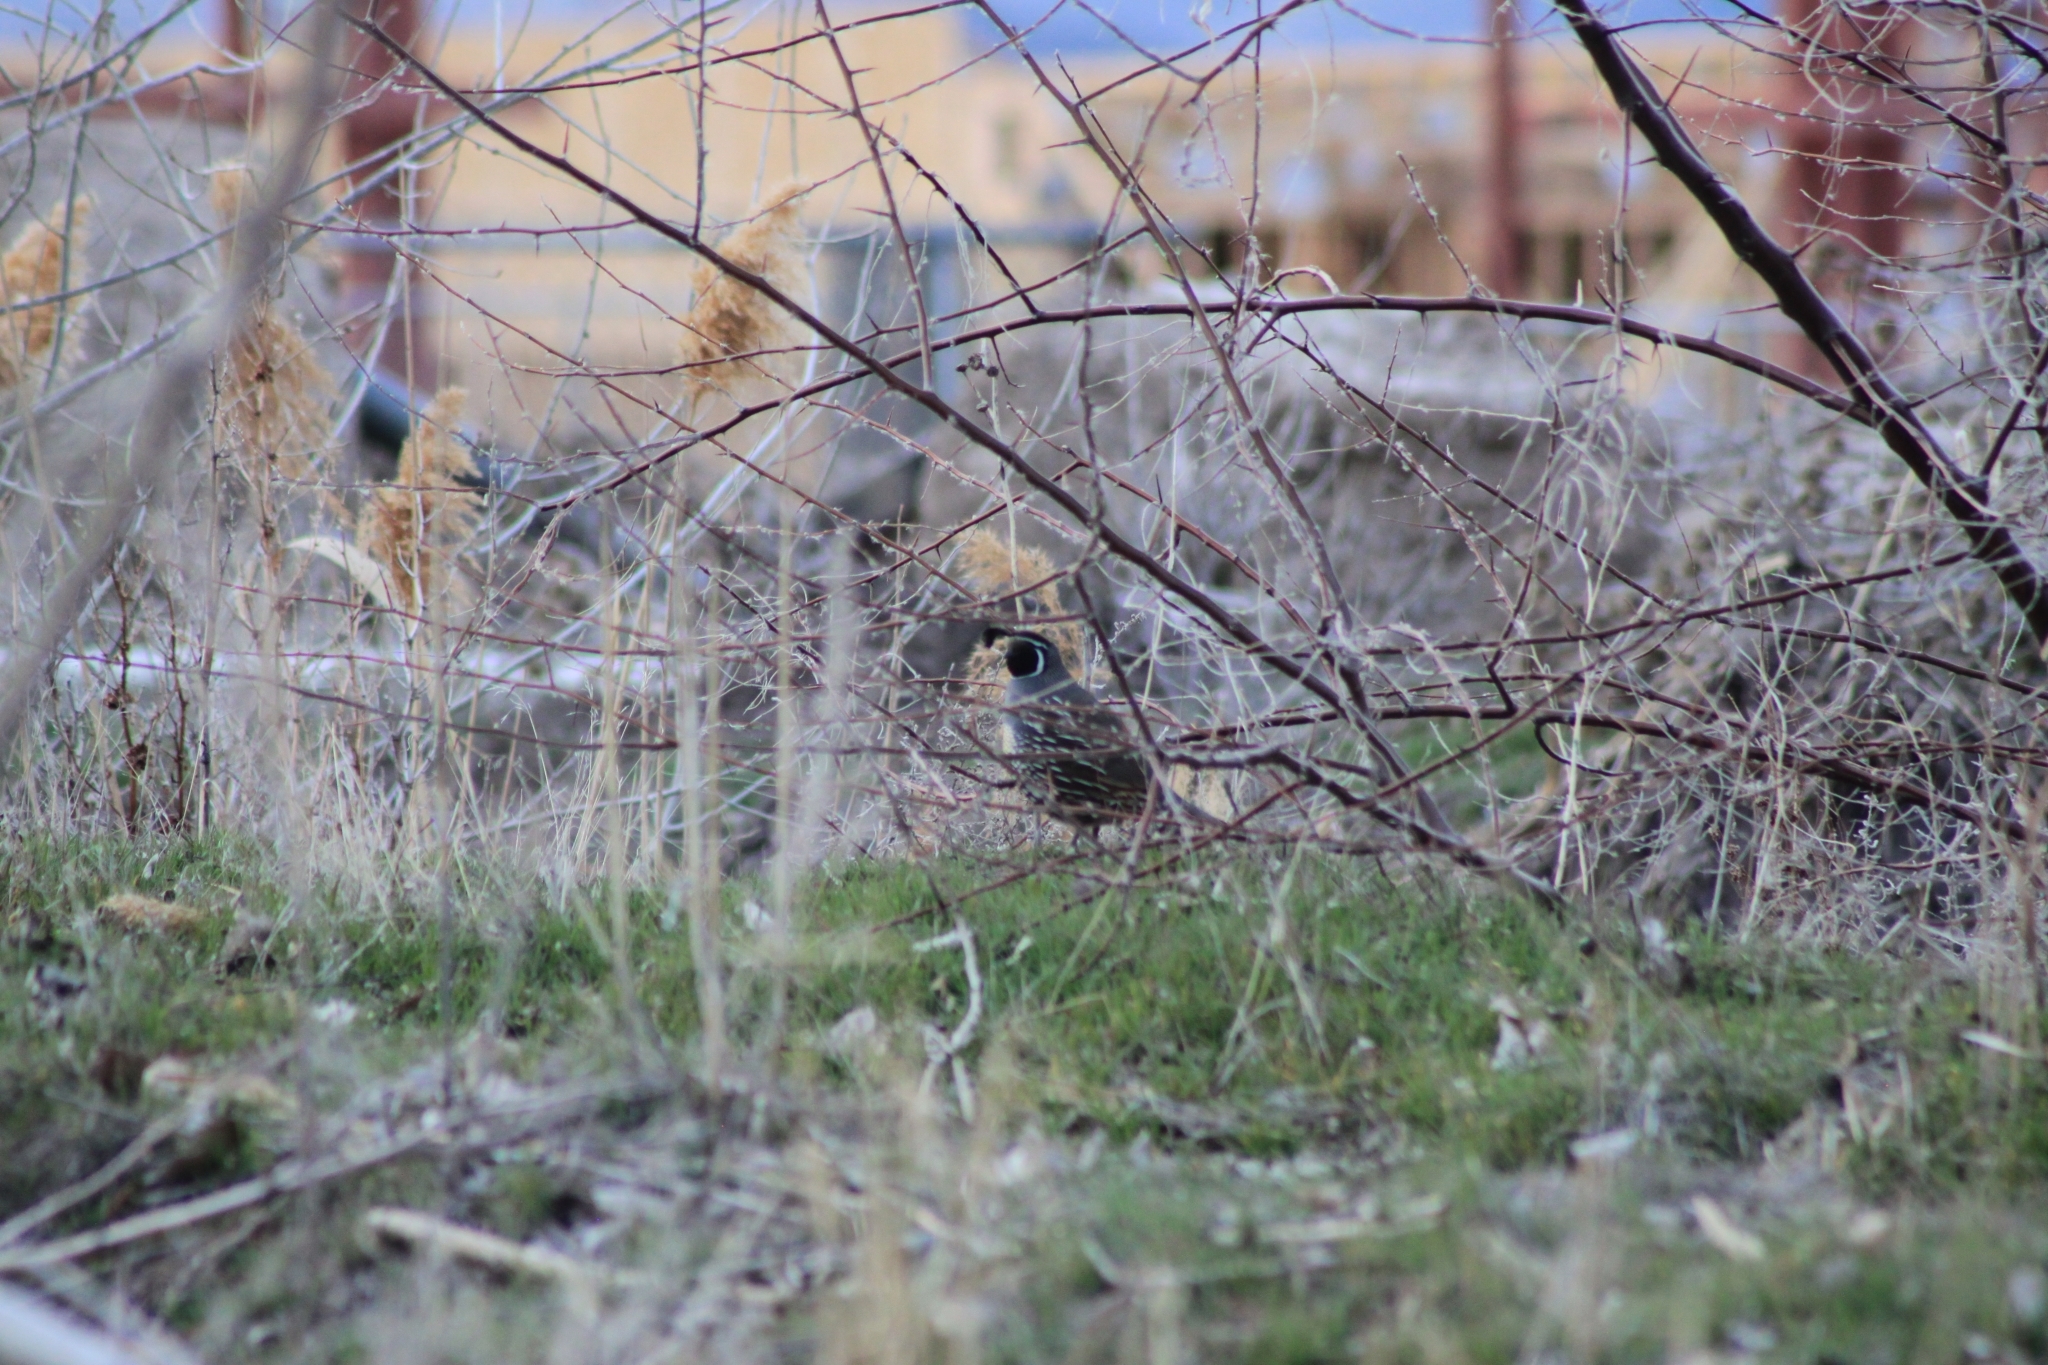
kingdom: Animalia
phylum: Chordata
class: Aves
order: Galliformes
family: Odontophoridae
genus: Callipepla
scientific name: Callipepla californica
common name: California quail
